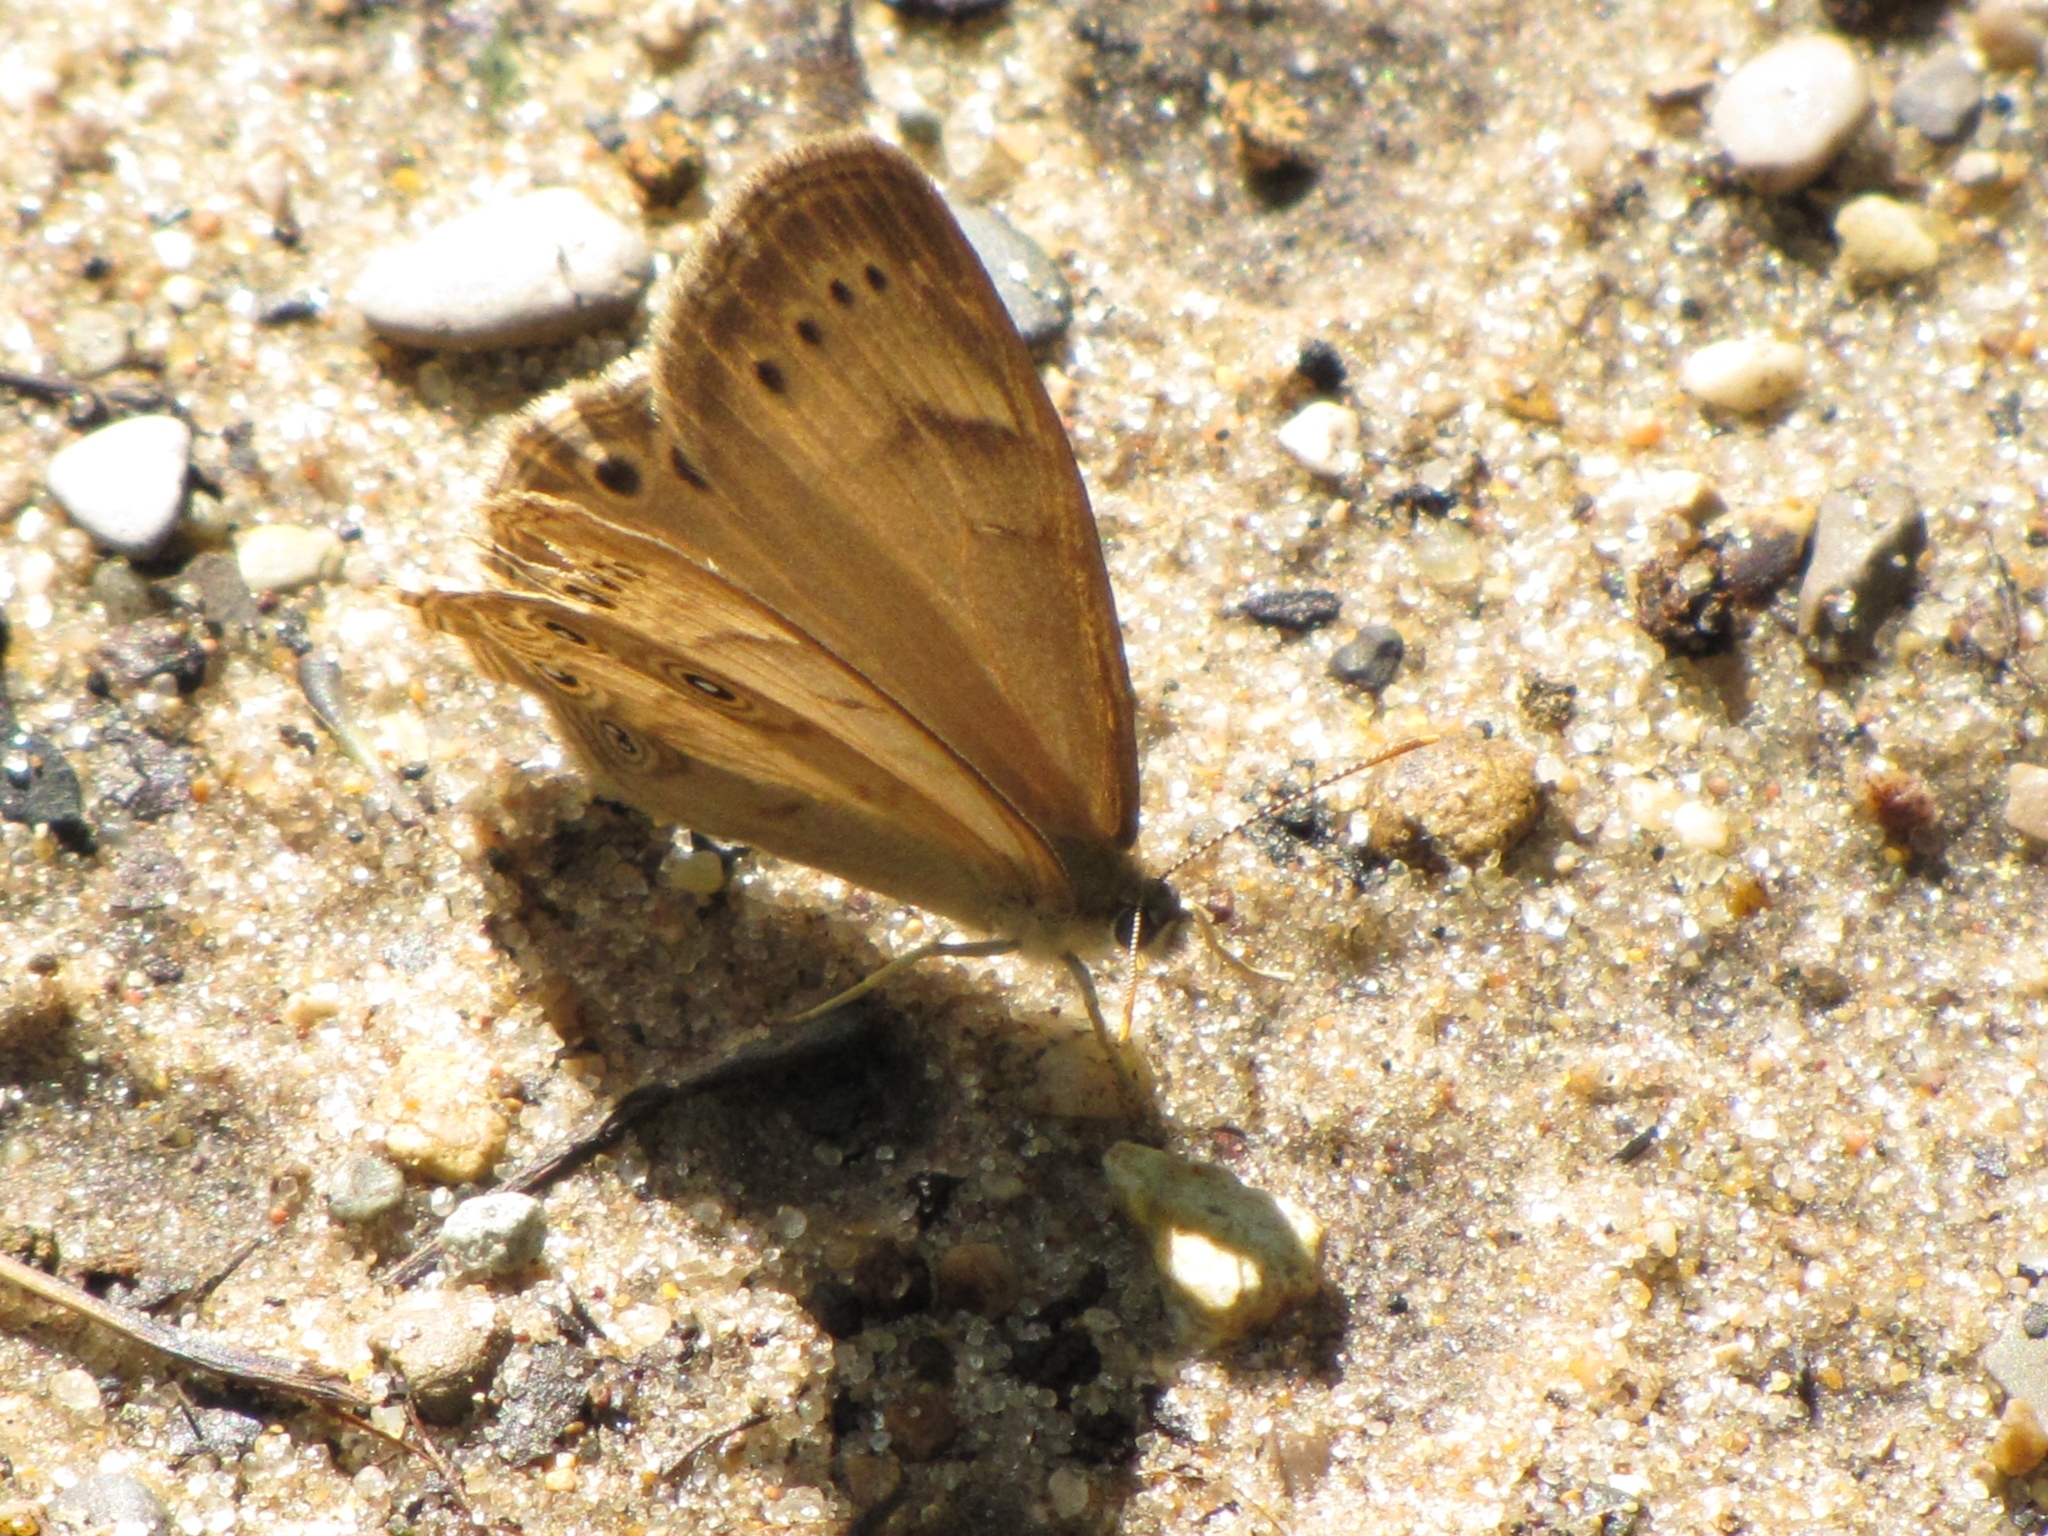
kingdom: Animalia
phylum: Arthropoda
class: Insecta
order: Lepidoptera
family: Nymphalidae
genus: Lethe
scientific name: Lethe eurydice
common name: Eyed brown
